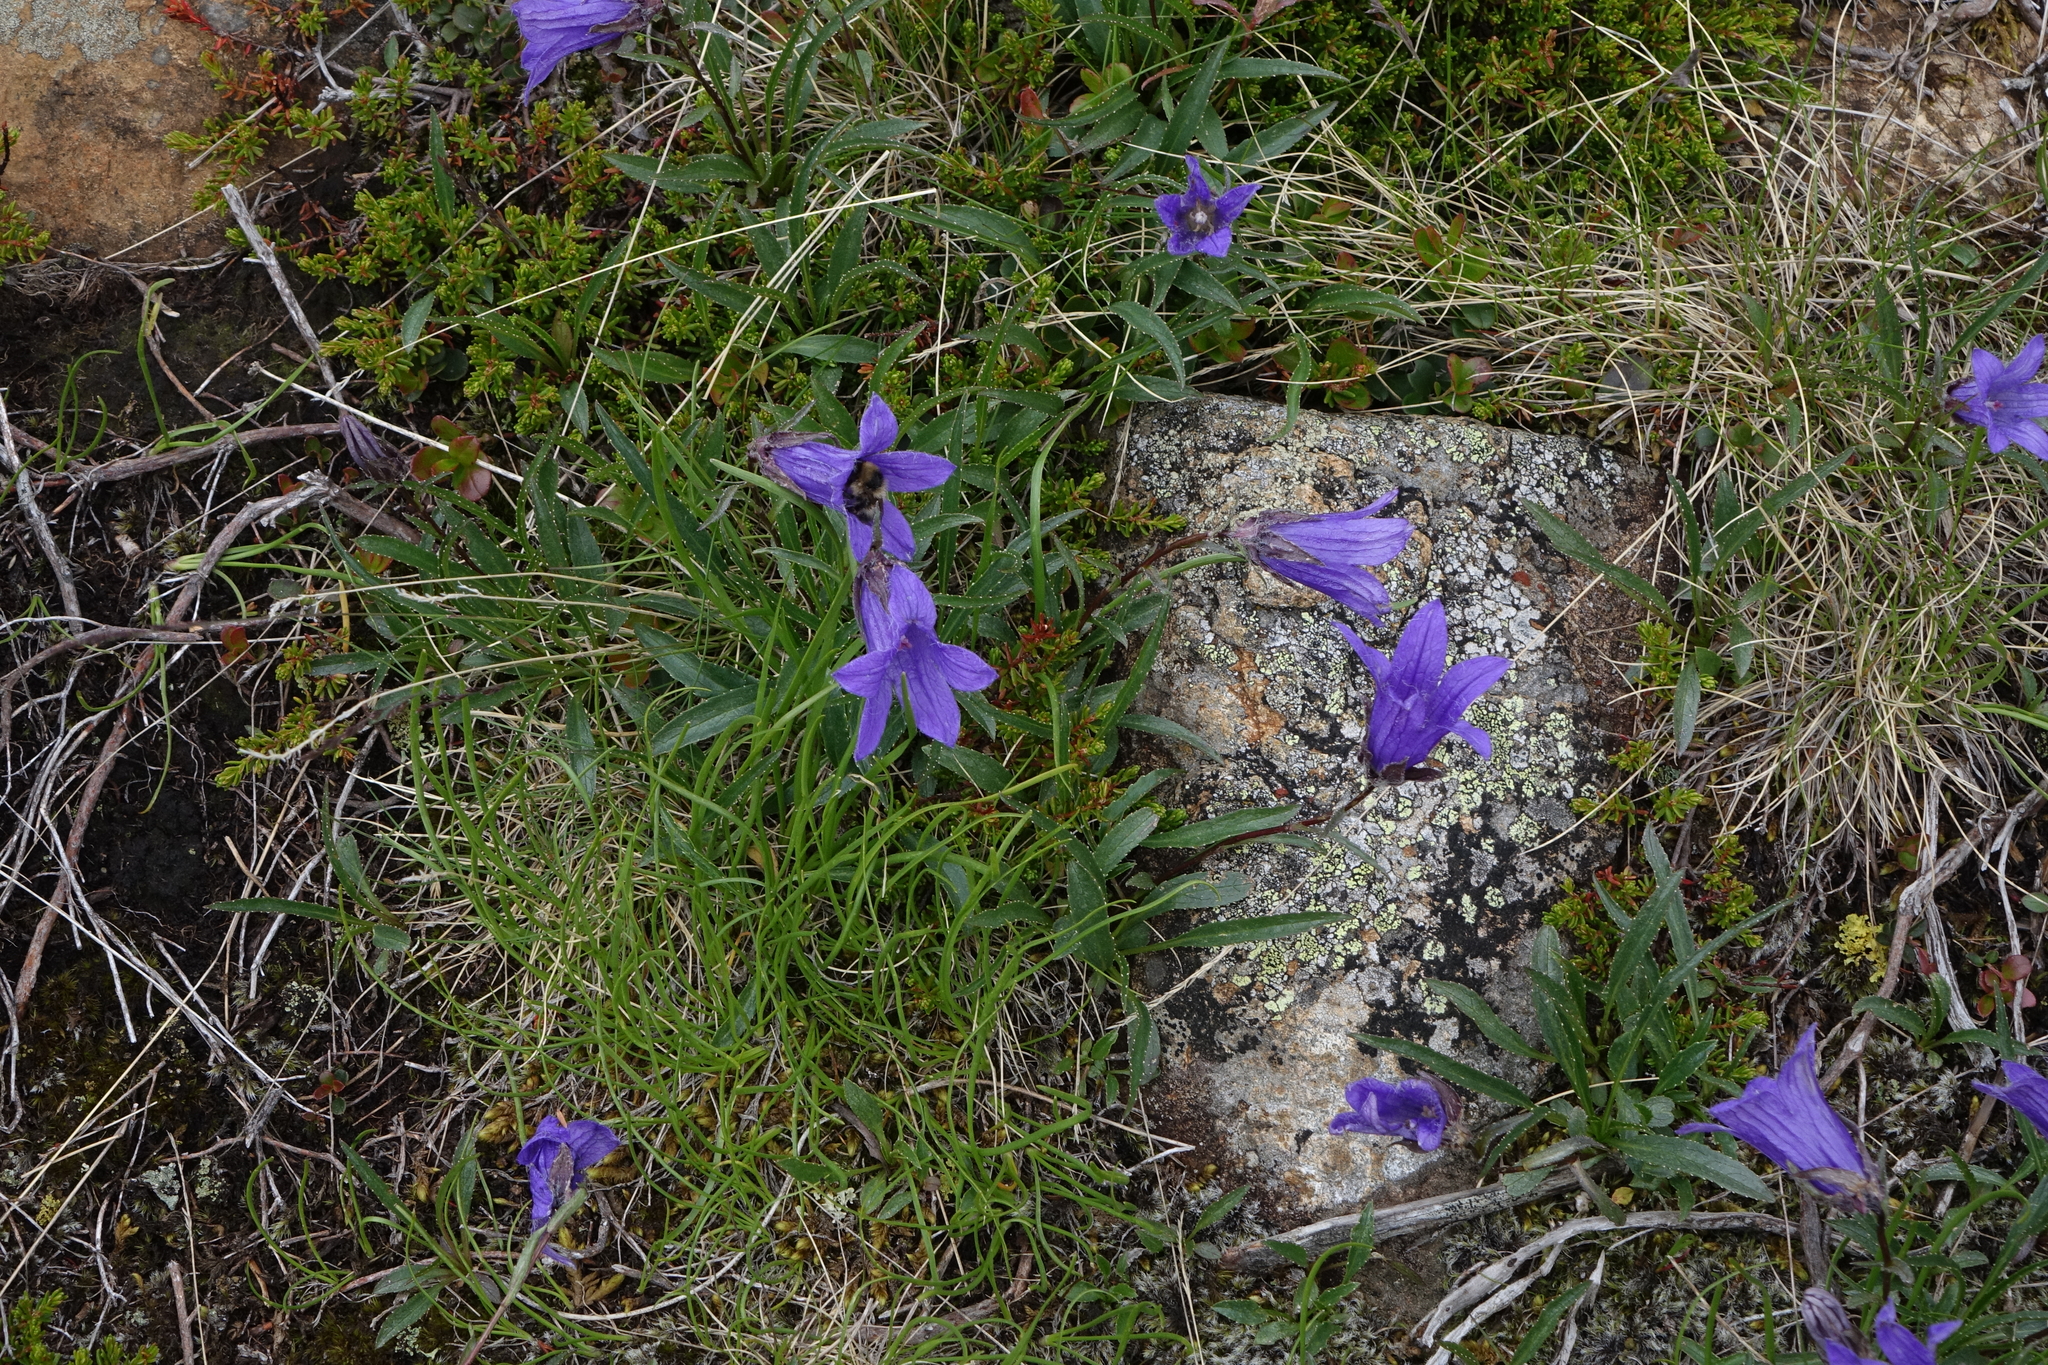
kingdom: Plantae
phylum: Tracheophyta
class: Magnoliopsida
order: Asterales
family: Campanulaceae
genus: Campanula
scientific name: Campanula dasyantha
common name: Hairyflower bellflower
